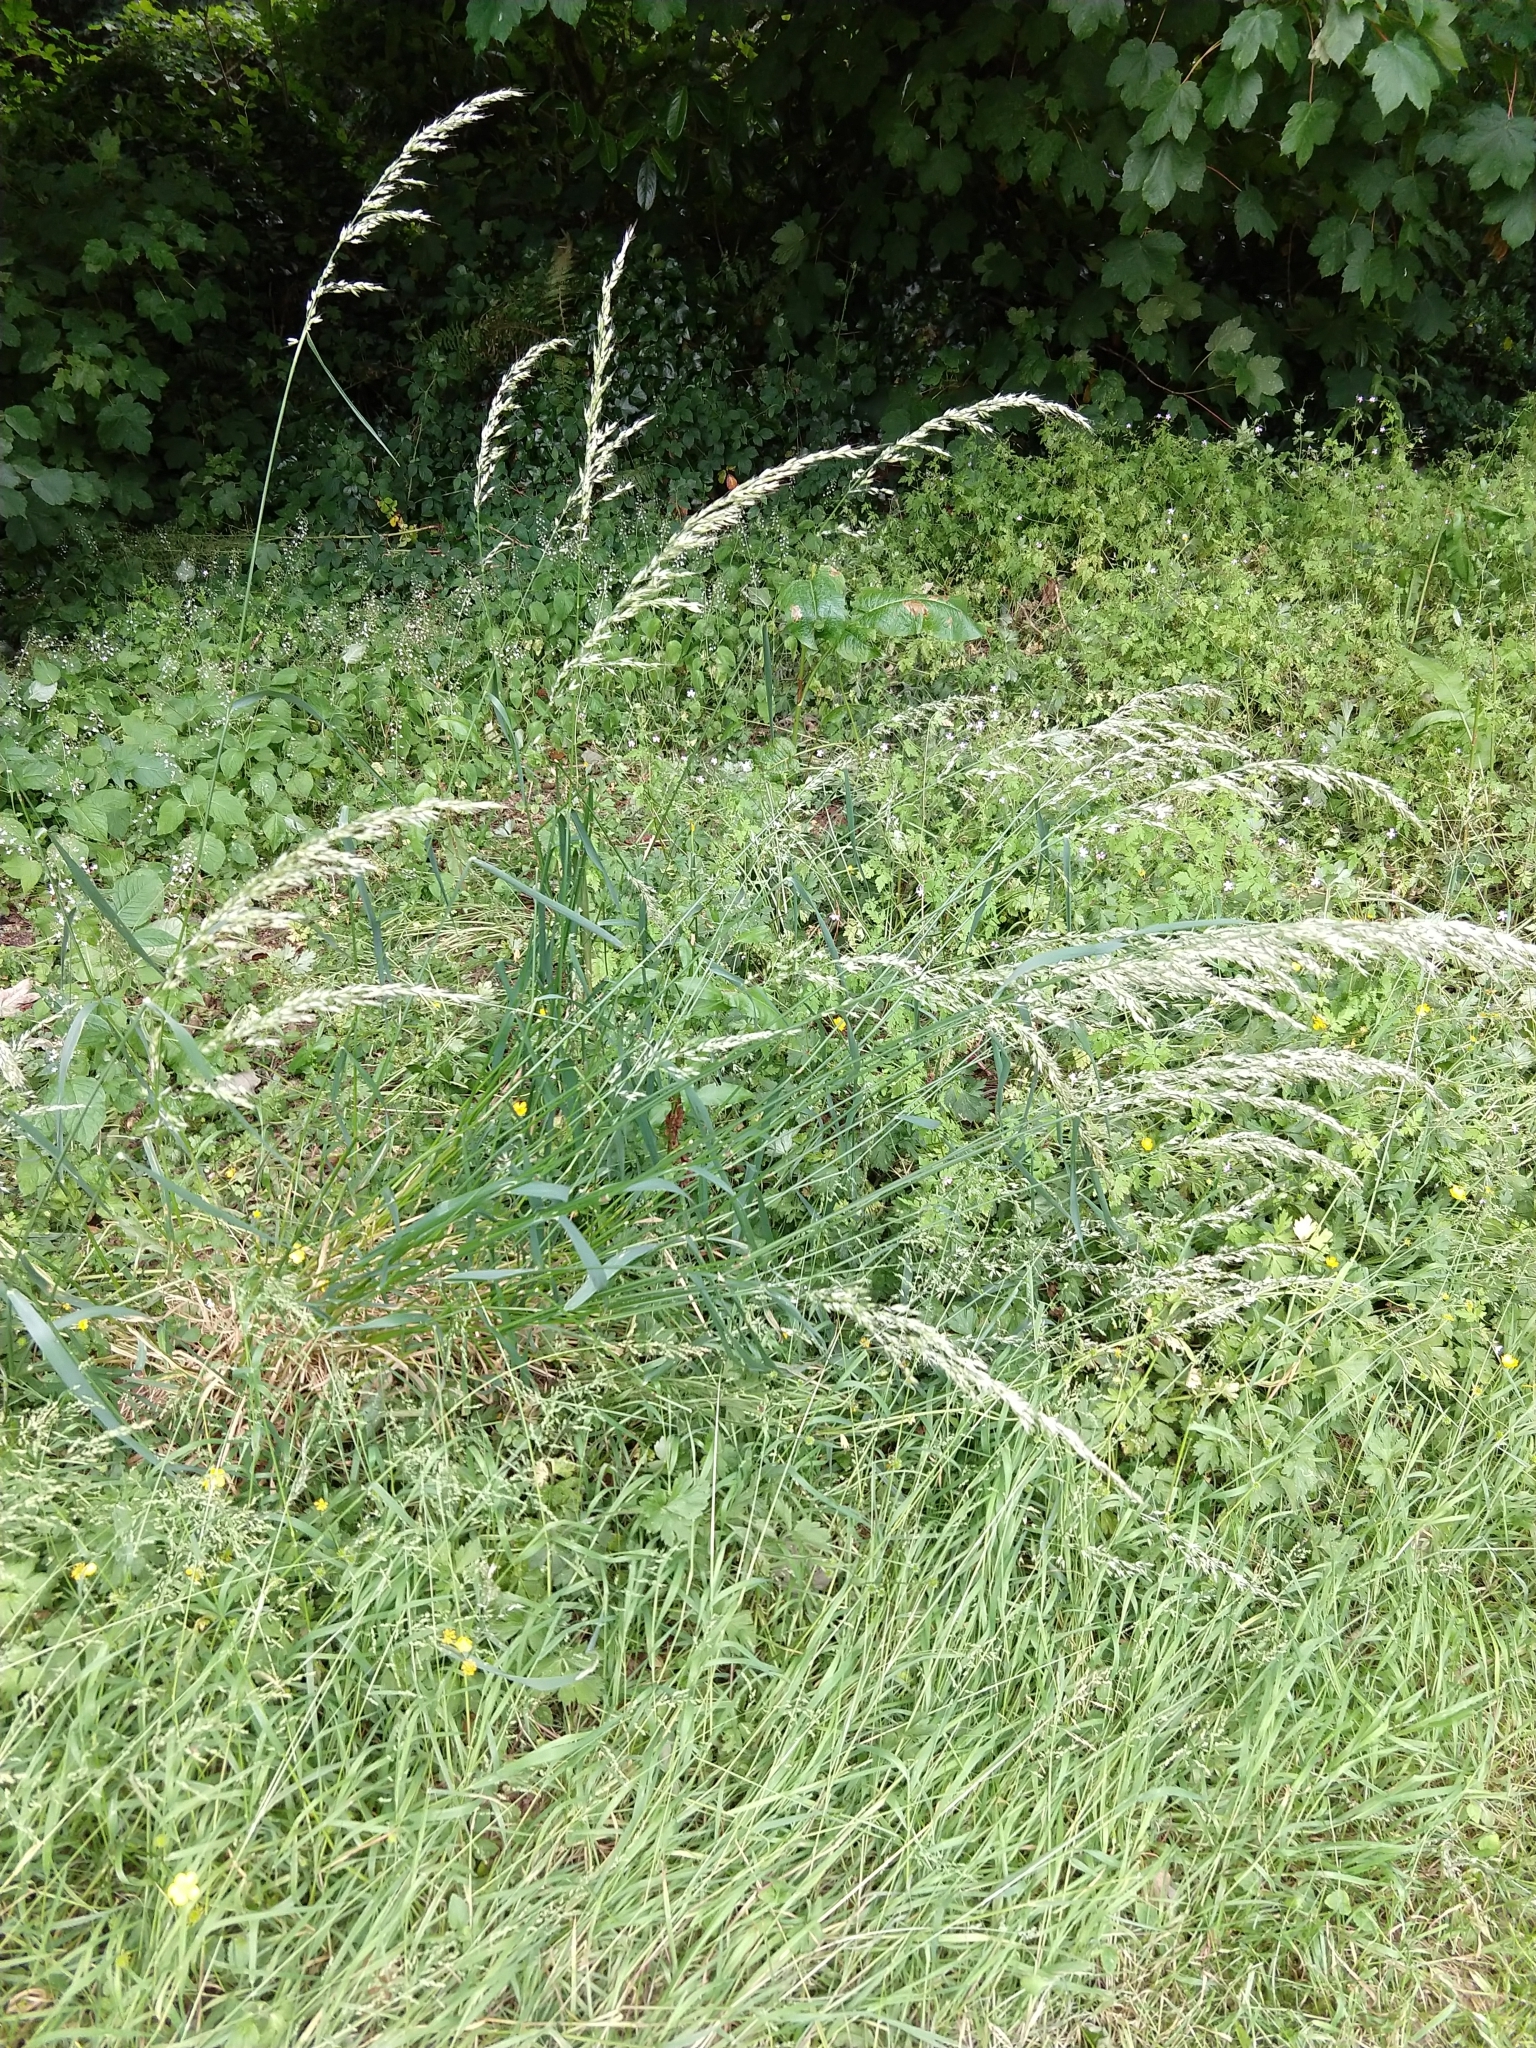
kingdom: Plantae
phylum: Tracheophyta
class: Liliopsida
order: Poales
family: Poaceae
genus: Arrhenatherum
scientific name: Arrhenatherum elatius
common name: Tall oatgrass
